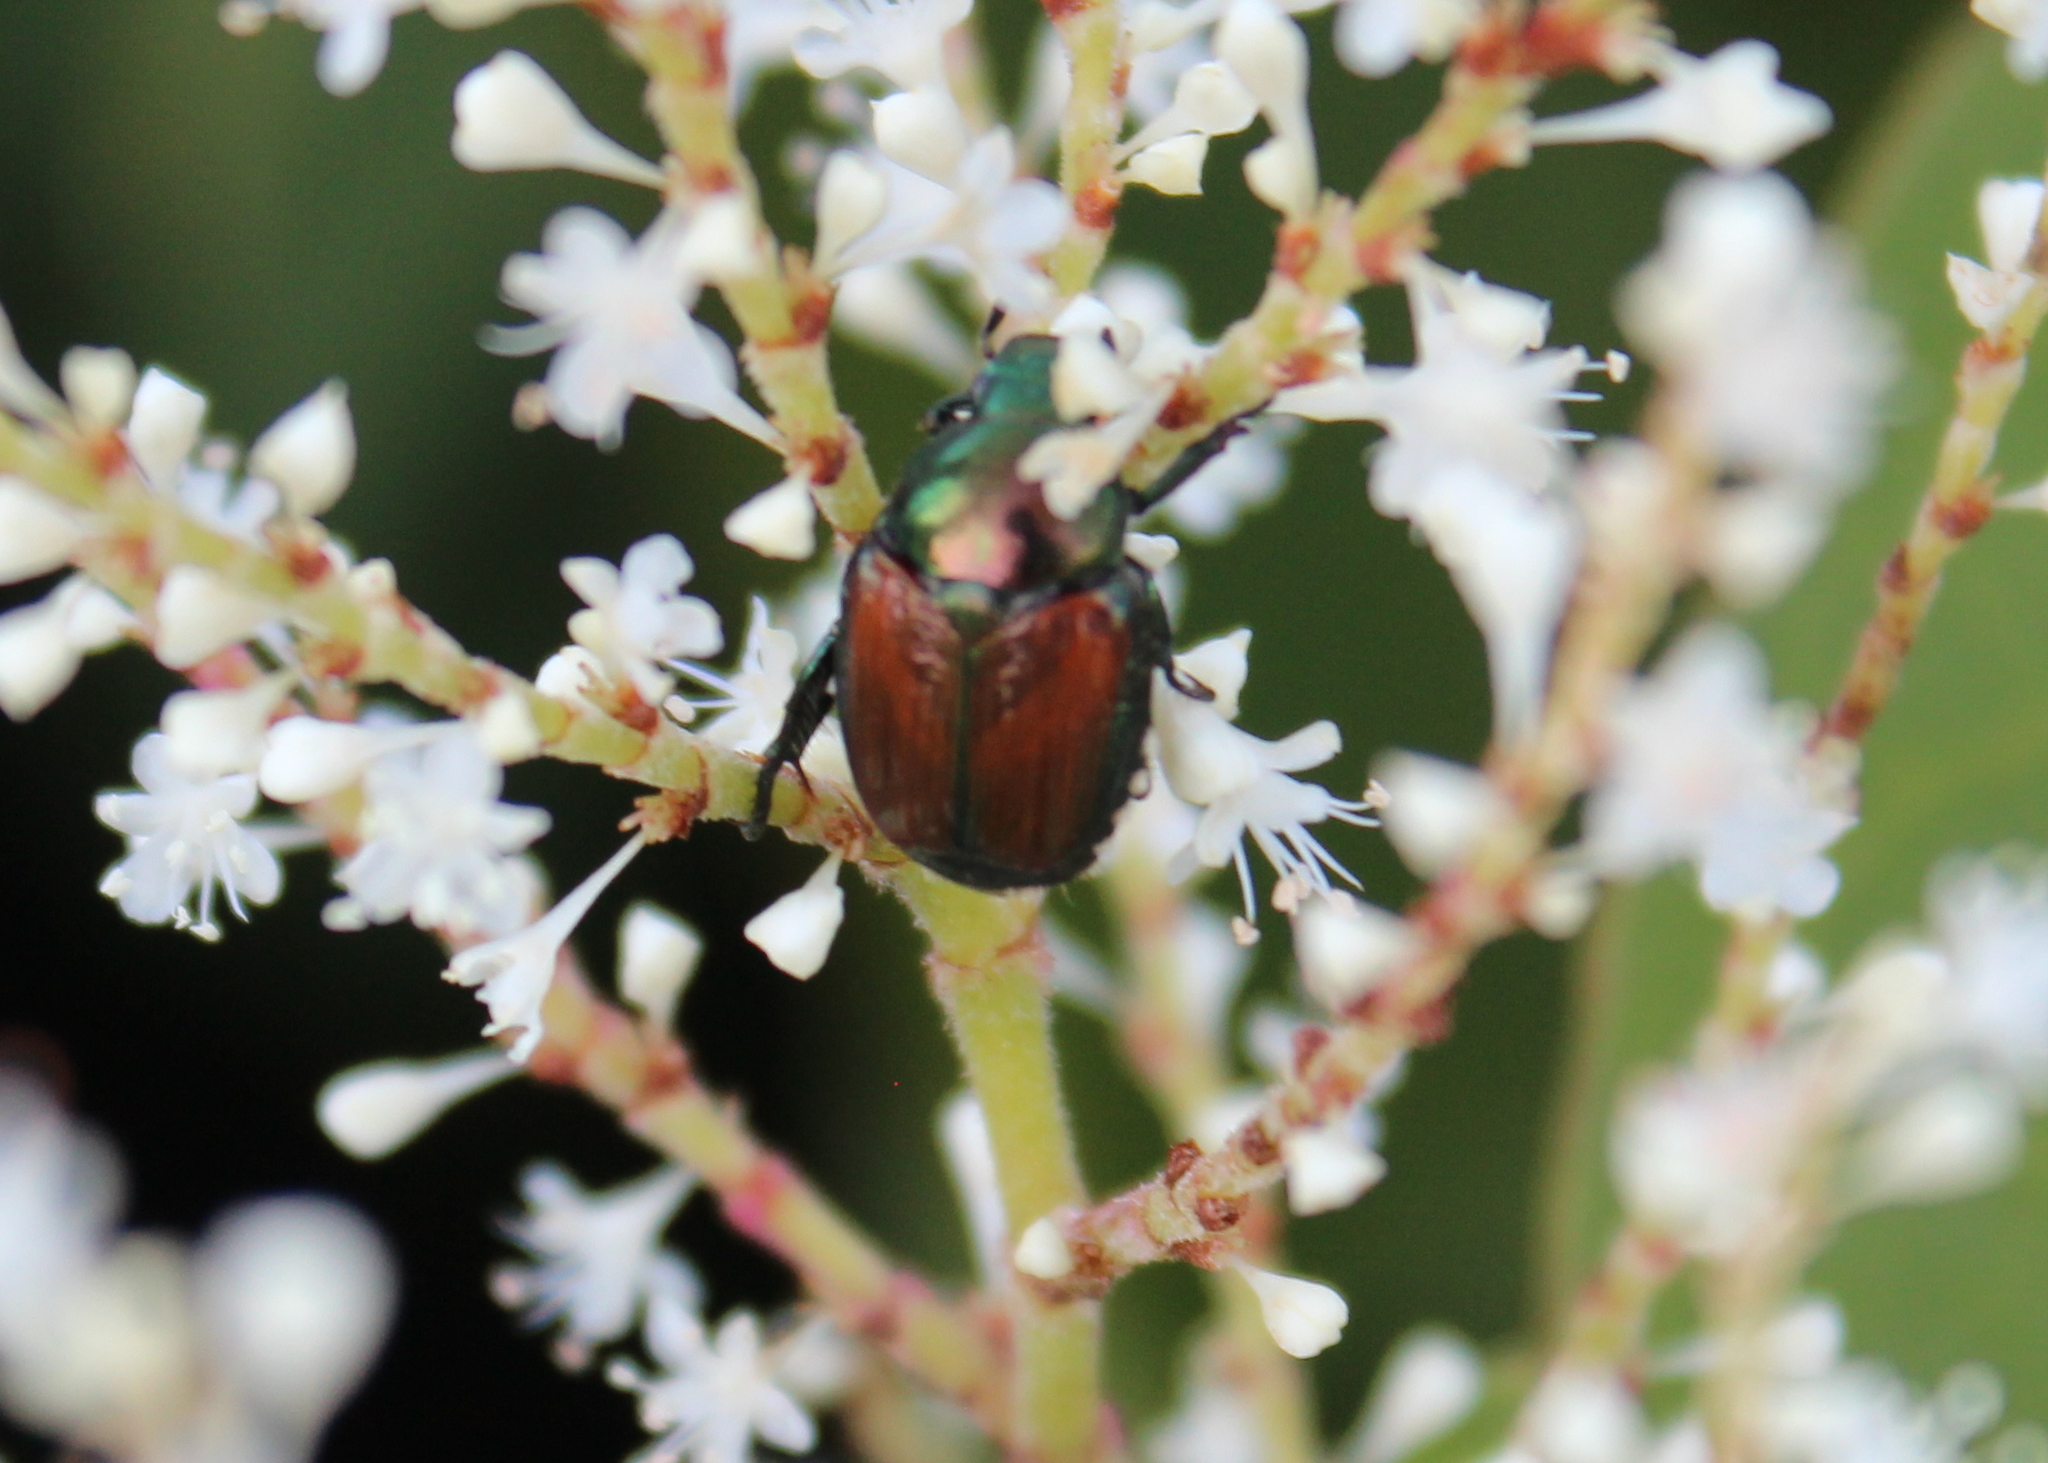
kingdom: Animalia
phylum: Arthropoda
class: Insecta
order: Coleoptera
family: Scarabaeidae
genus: Popillia
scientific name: Popillia japonica
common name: Japanese beetle
